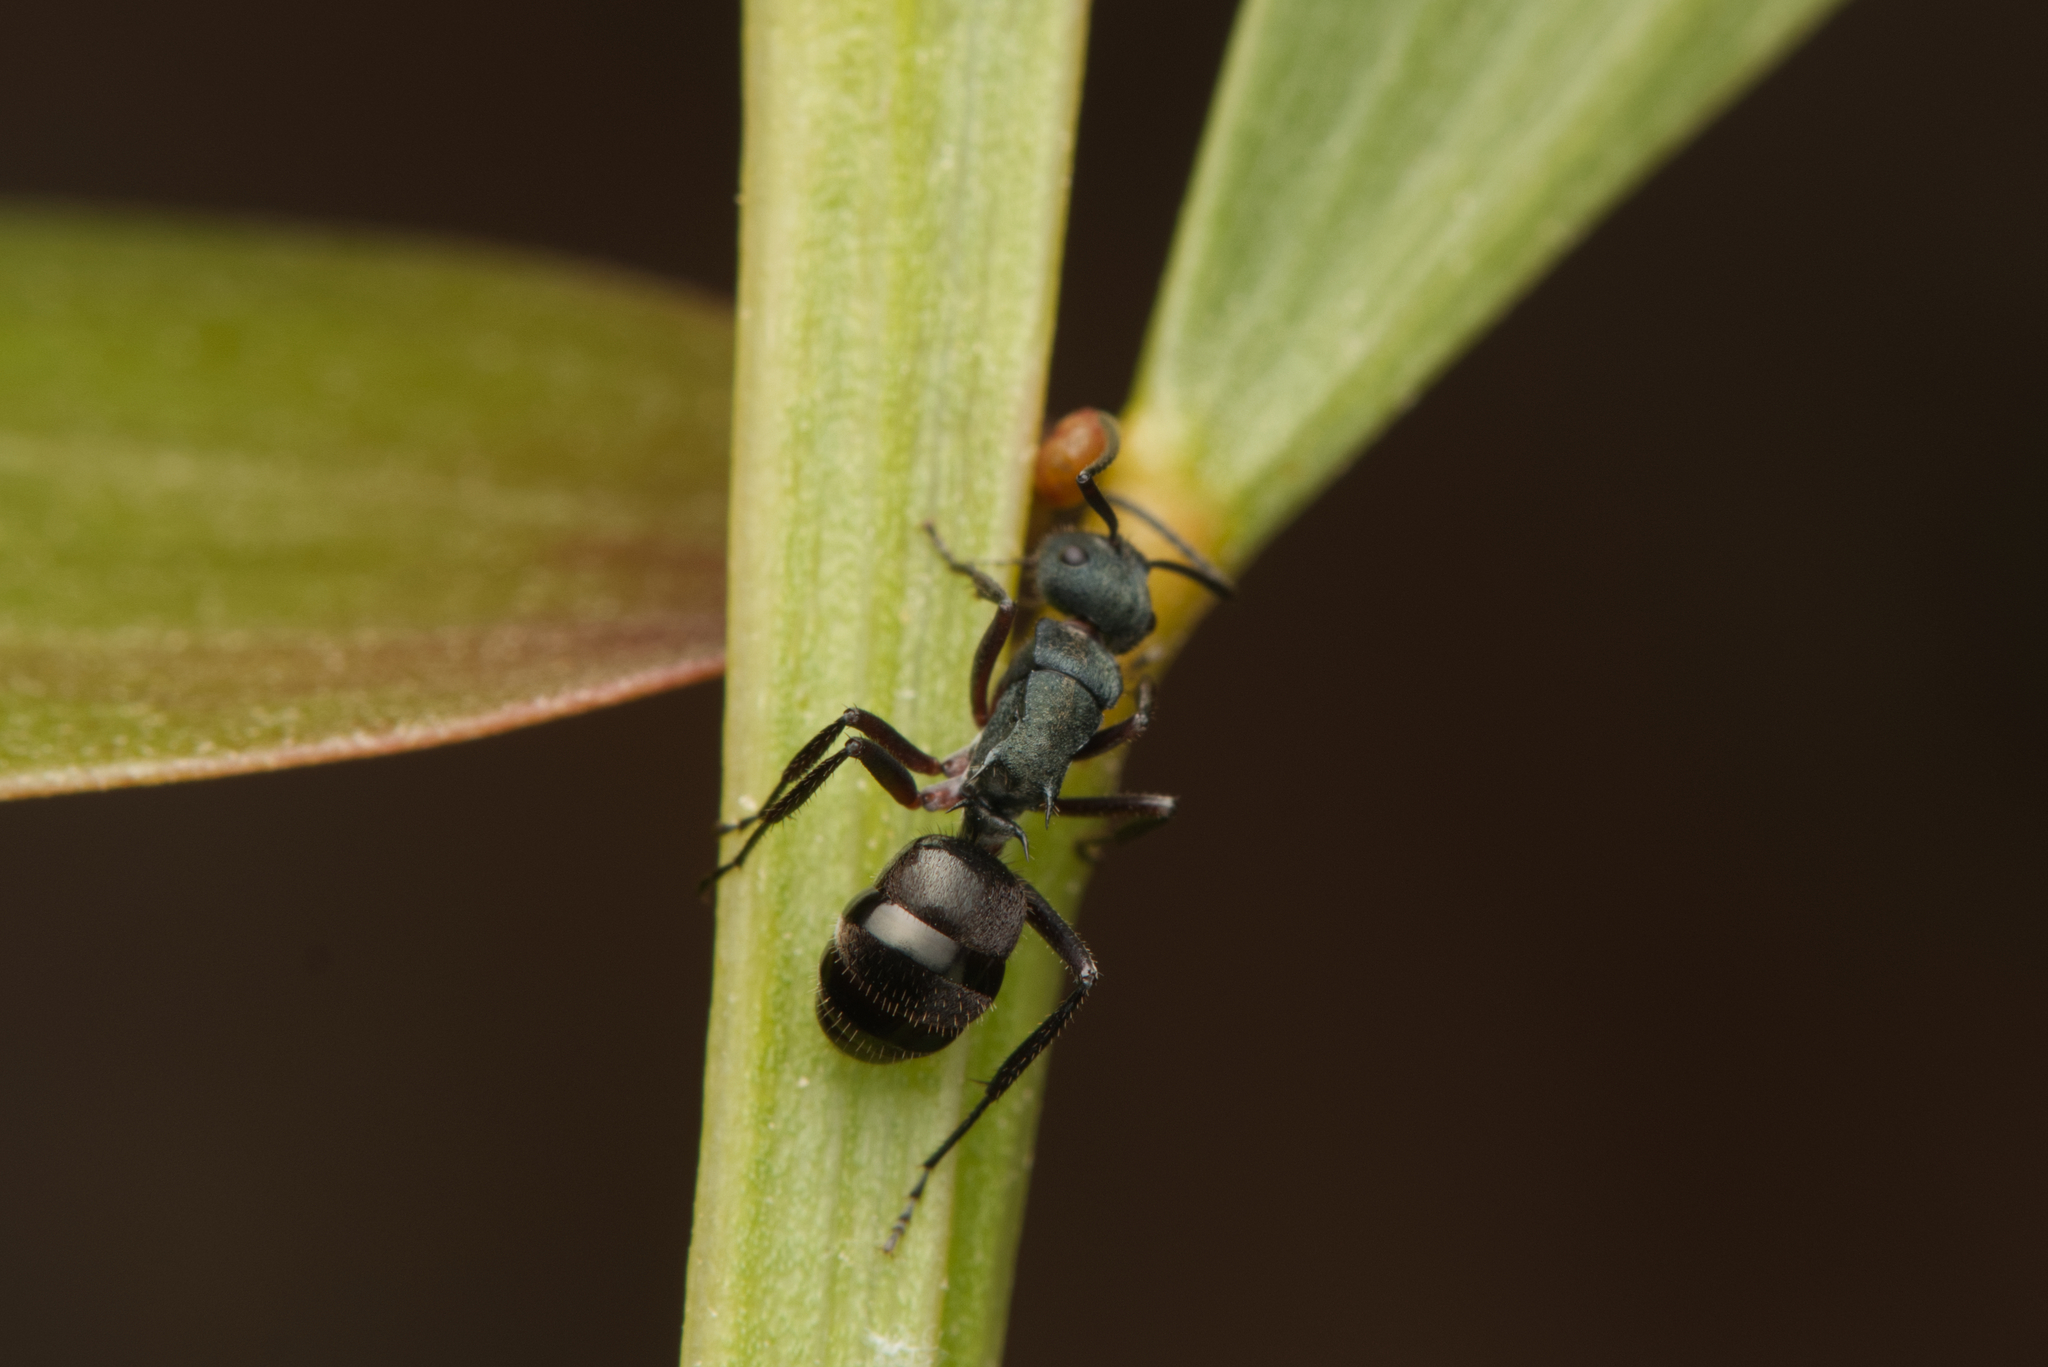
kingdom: Animalia
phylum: Arthropoda
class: Insecta
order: Hymenoptera
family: Formicidae
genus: Polyrhachis
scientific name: Polyrhachis lydiae
